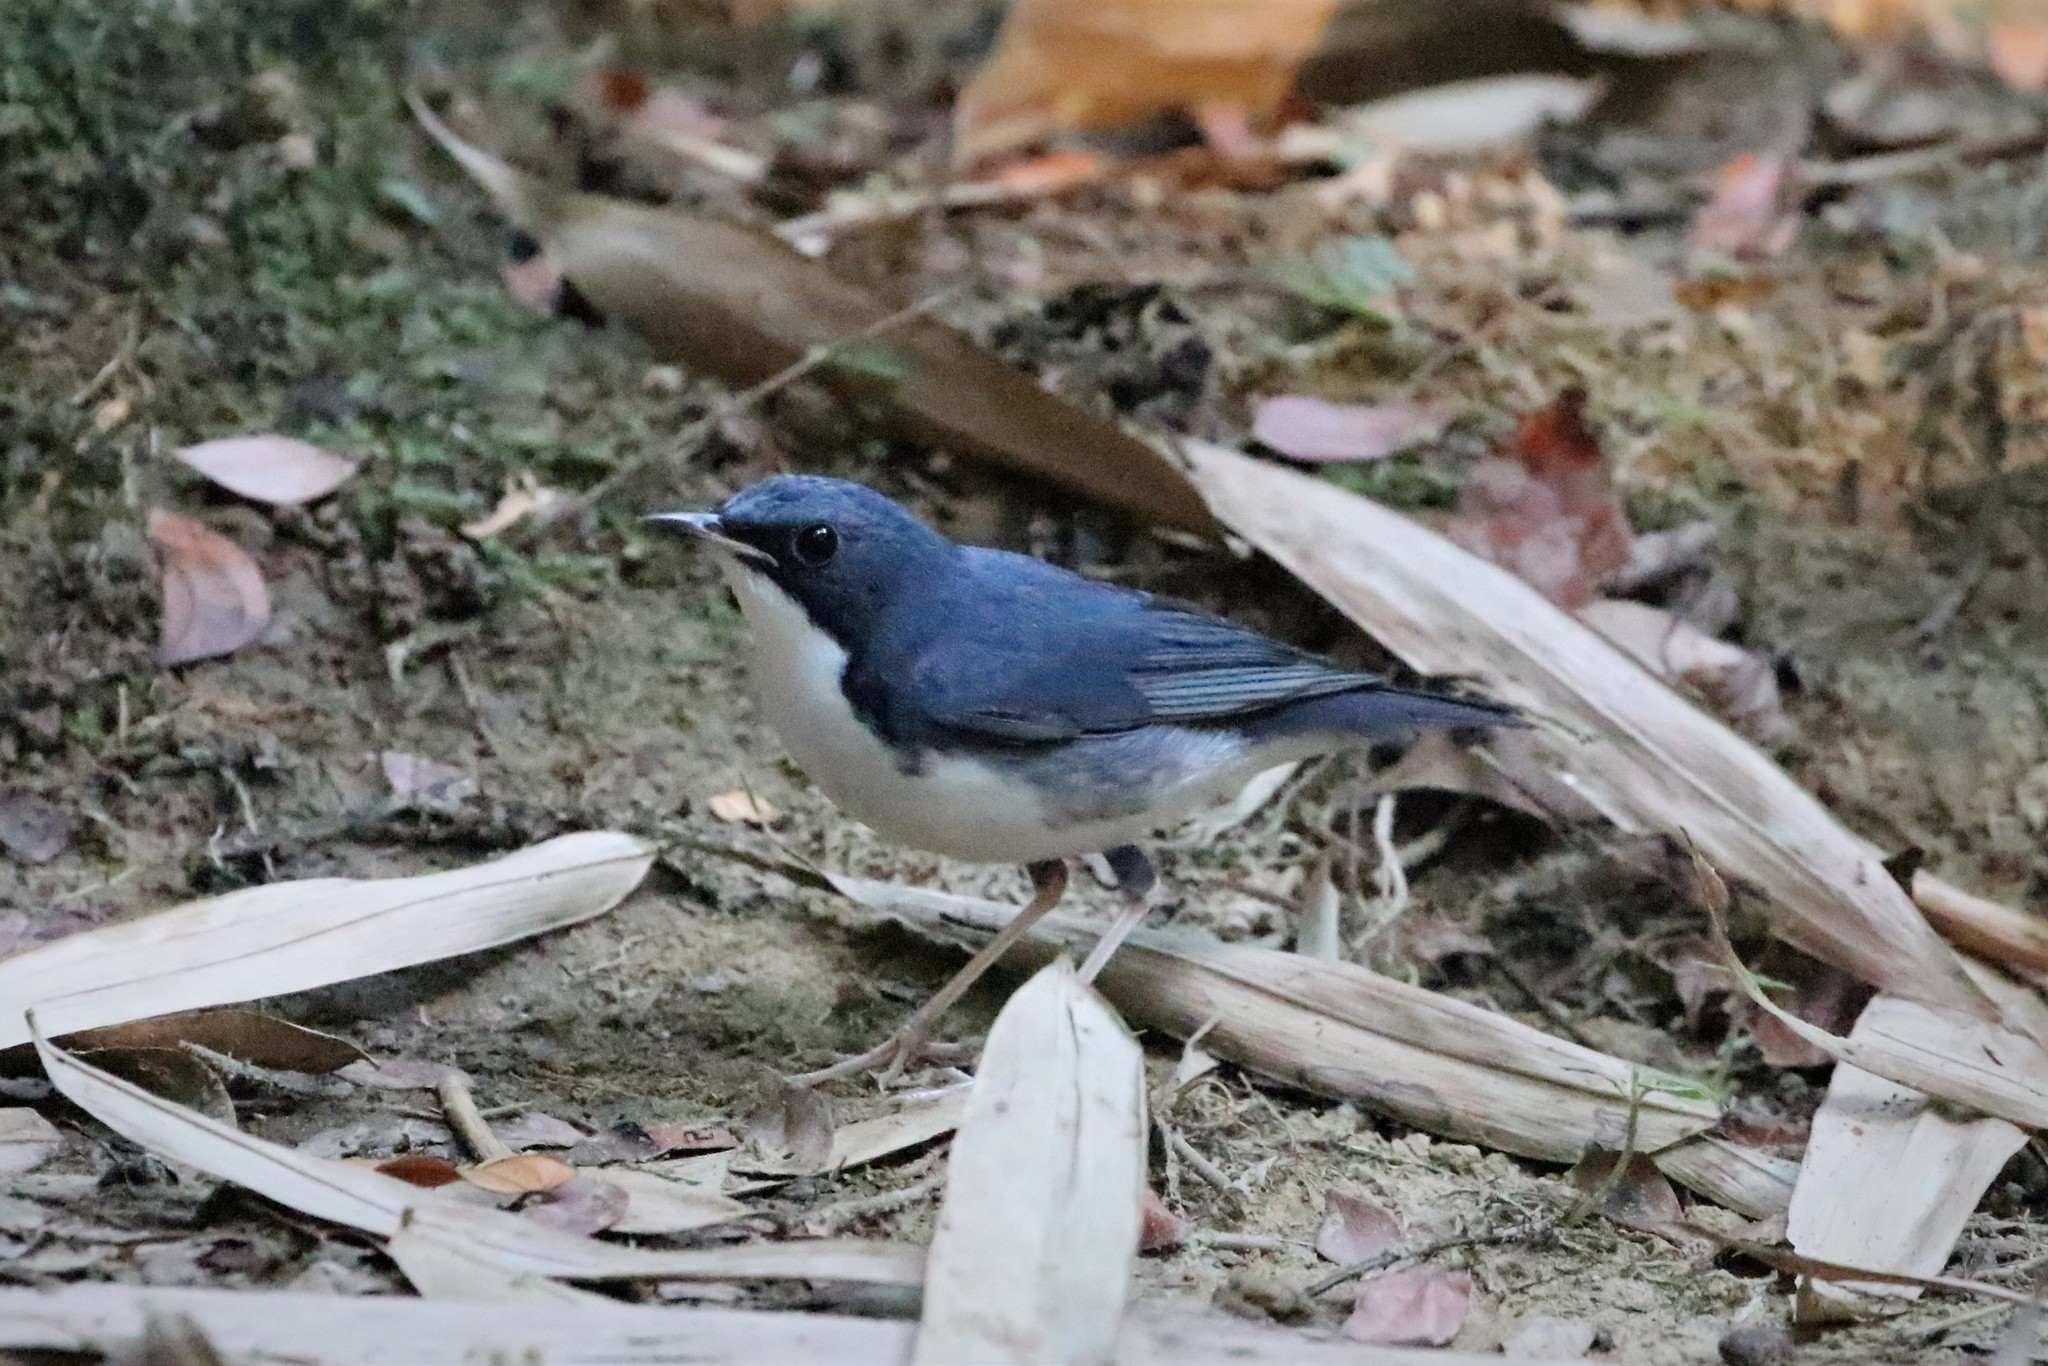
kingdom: Animalia
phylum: Chordata
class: Aves
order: Passeriformes
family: Muscicapidae
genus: Luscinia
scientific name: Luscinia cyane
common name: Siberian blue robin
